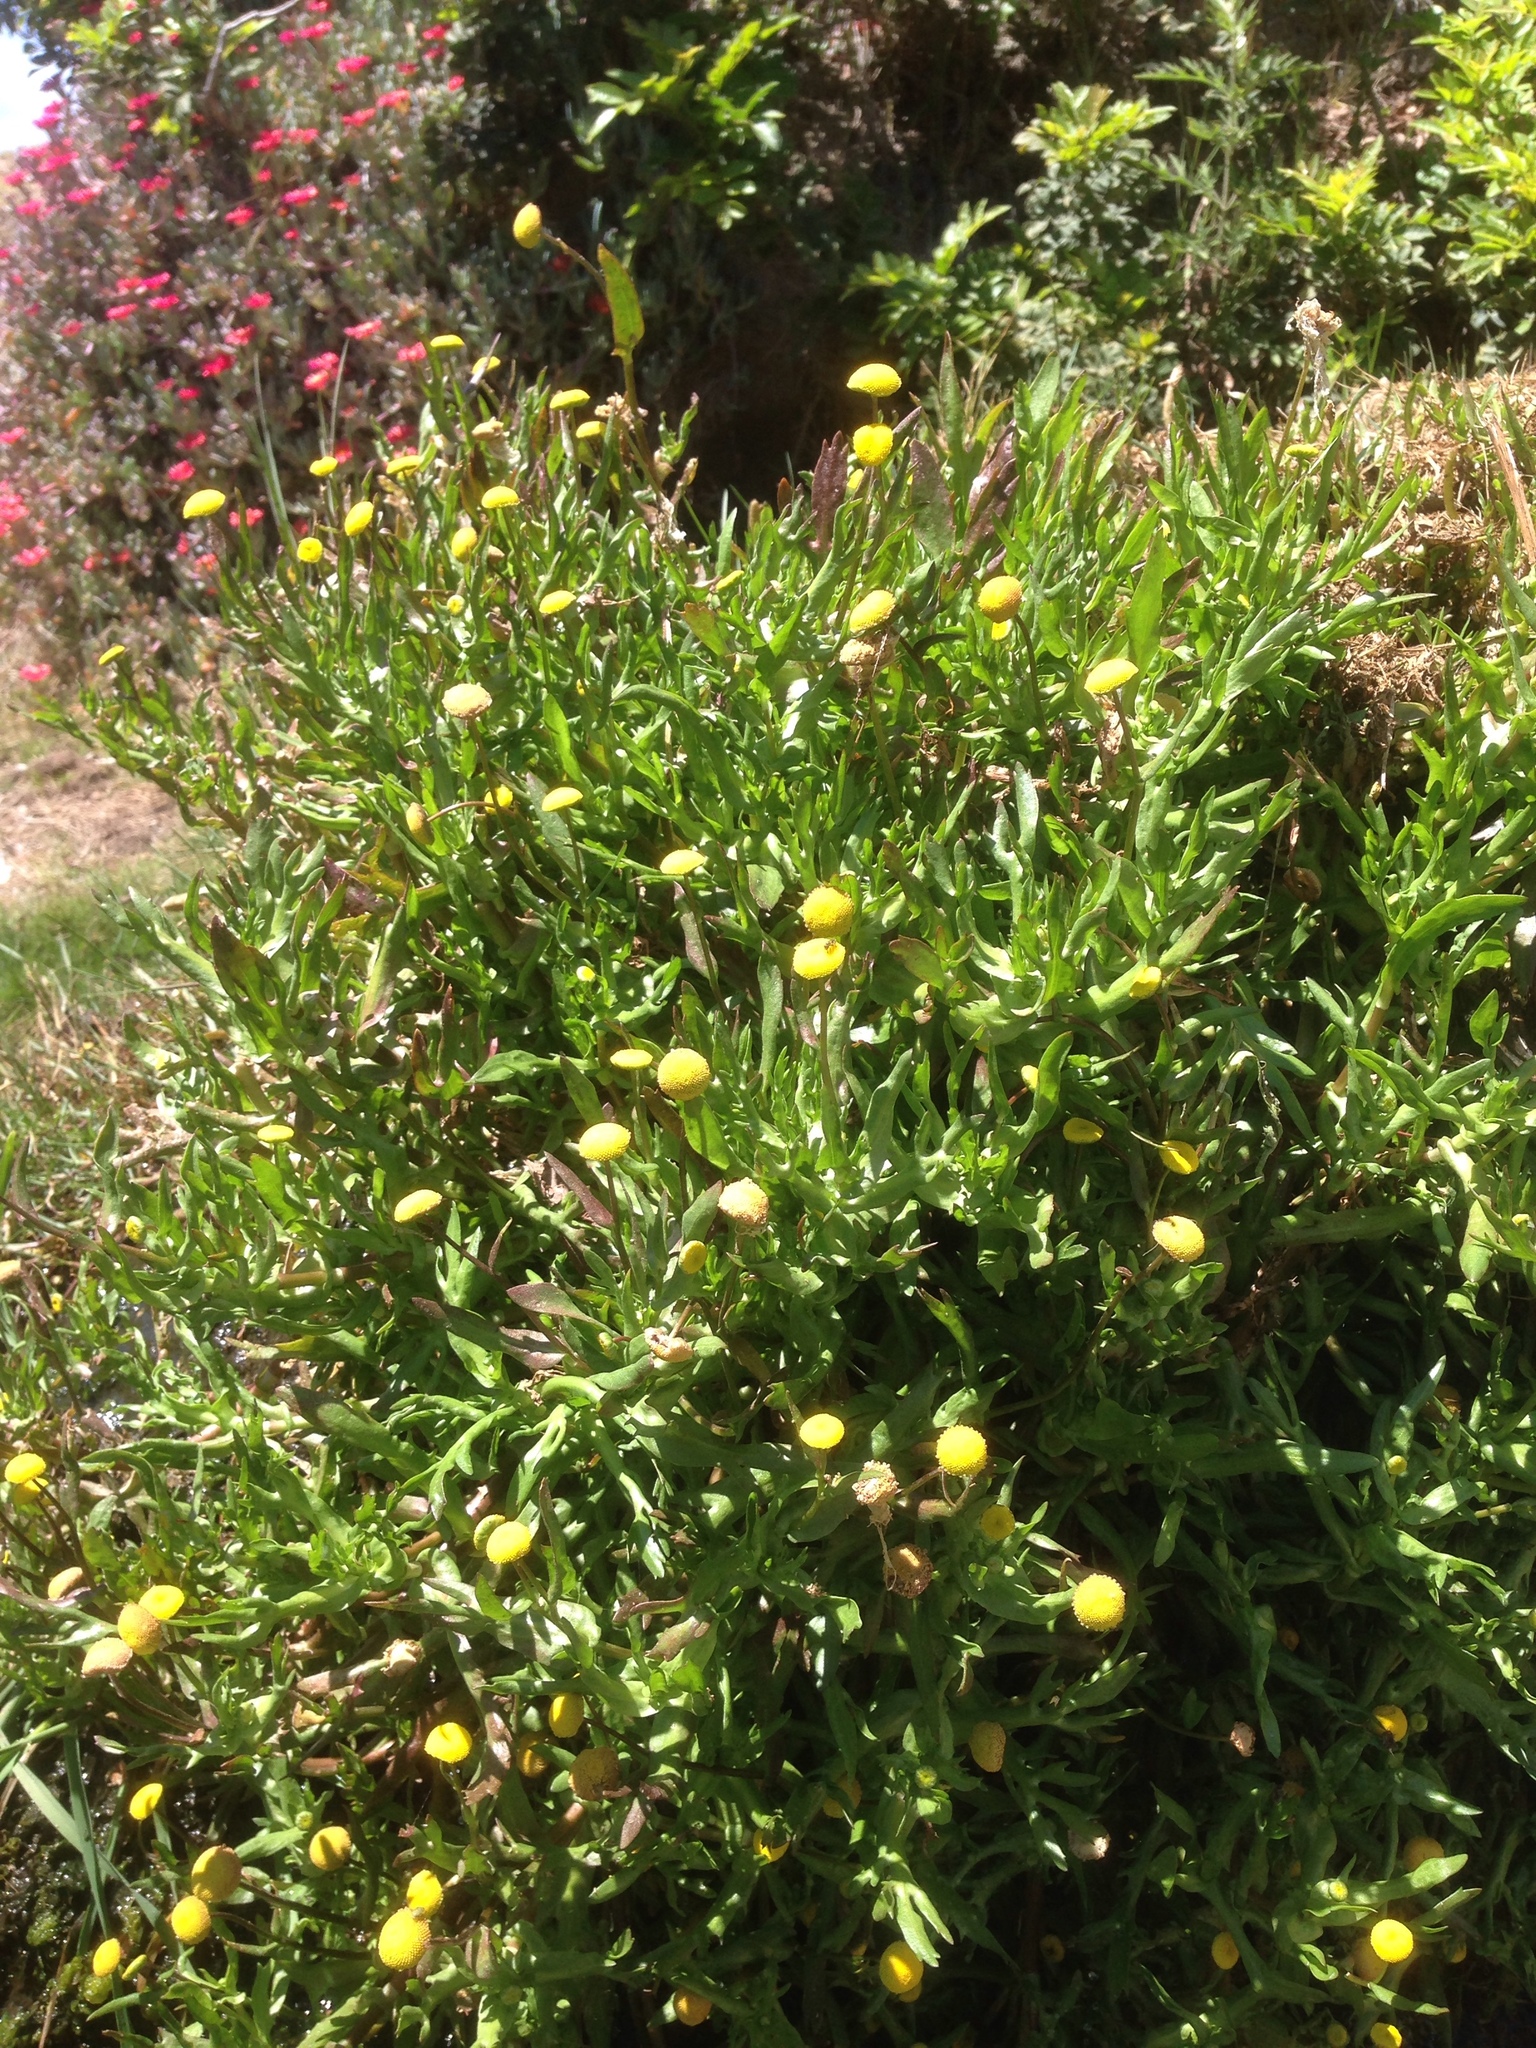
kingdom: Plantae
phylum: Tracheophyta
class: Magnoliopsida
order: Asterales
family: Asteraceae
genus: Cotula
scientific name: Cotula coronopifolia
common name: Buttonweed
